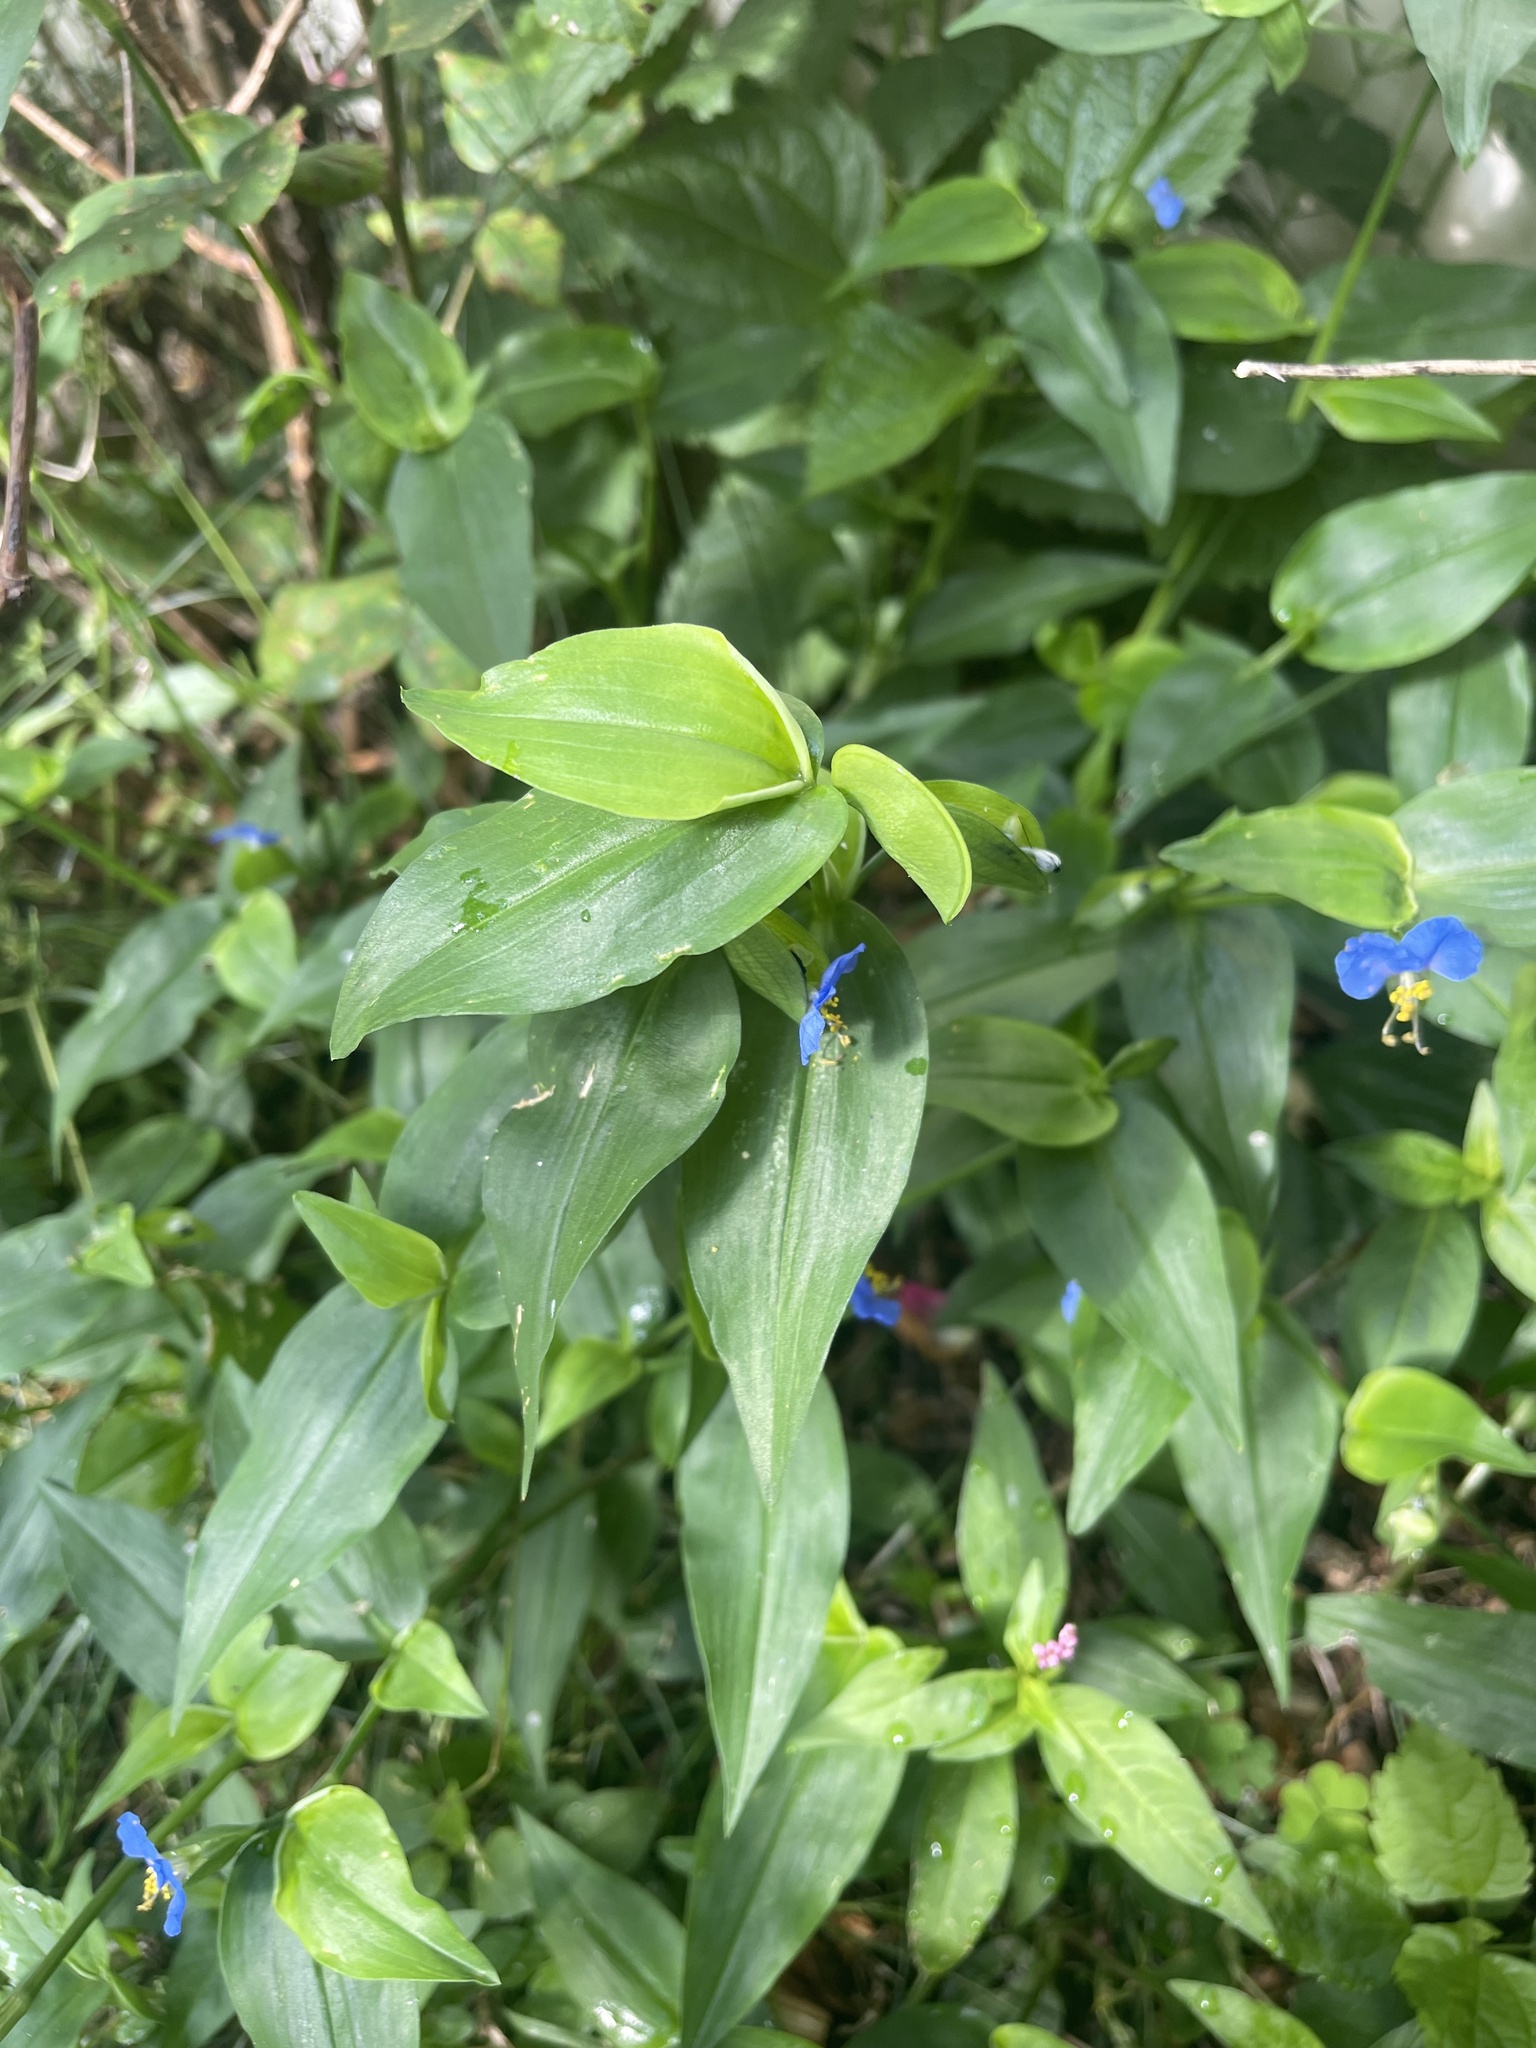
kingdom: Plantae
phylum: Tracheophyta
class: Liliopsida
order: Commelinales
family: Commelinaceae
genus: Commelina
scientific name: Commelina communis
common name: Asiatic dayflower
